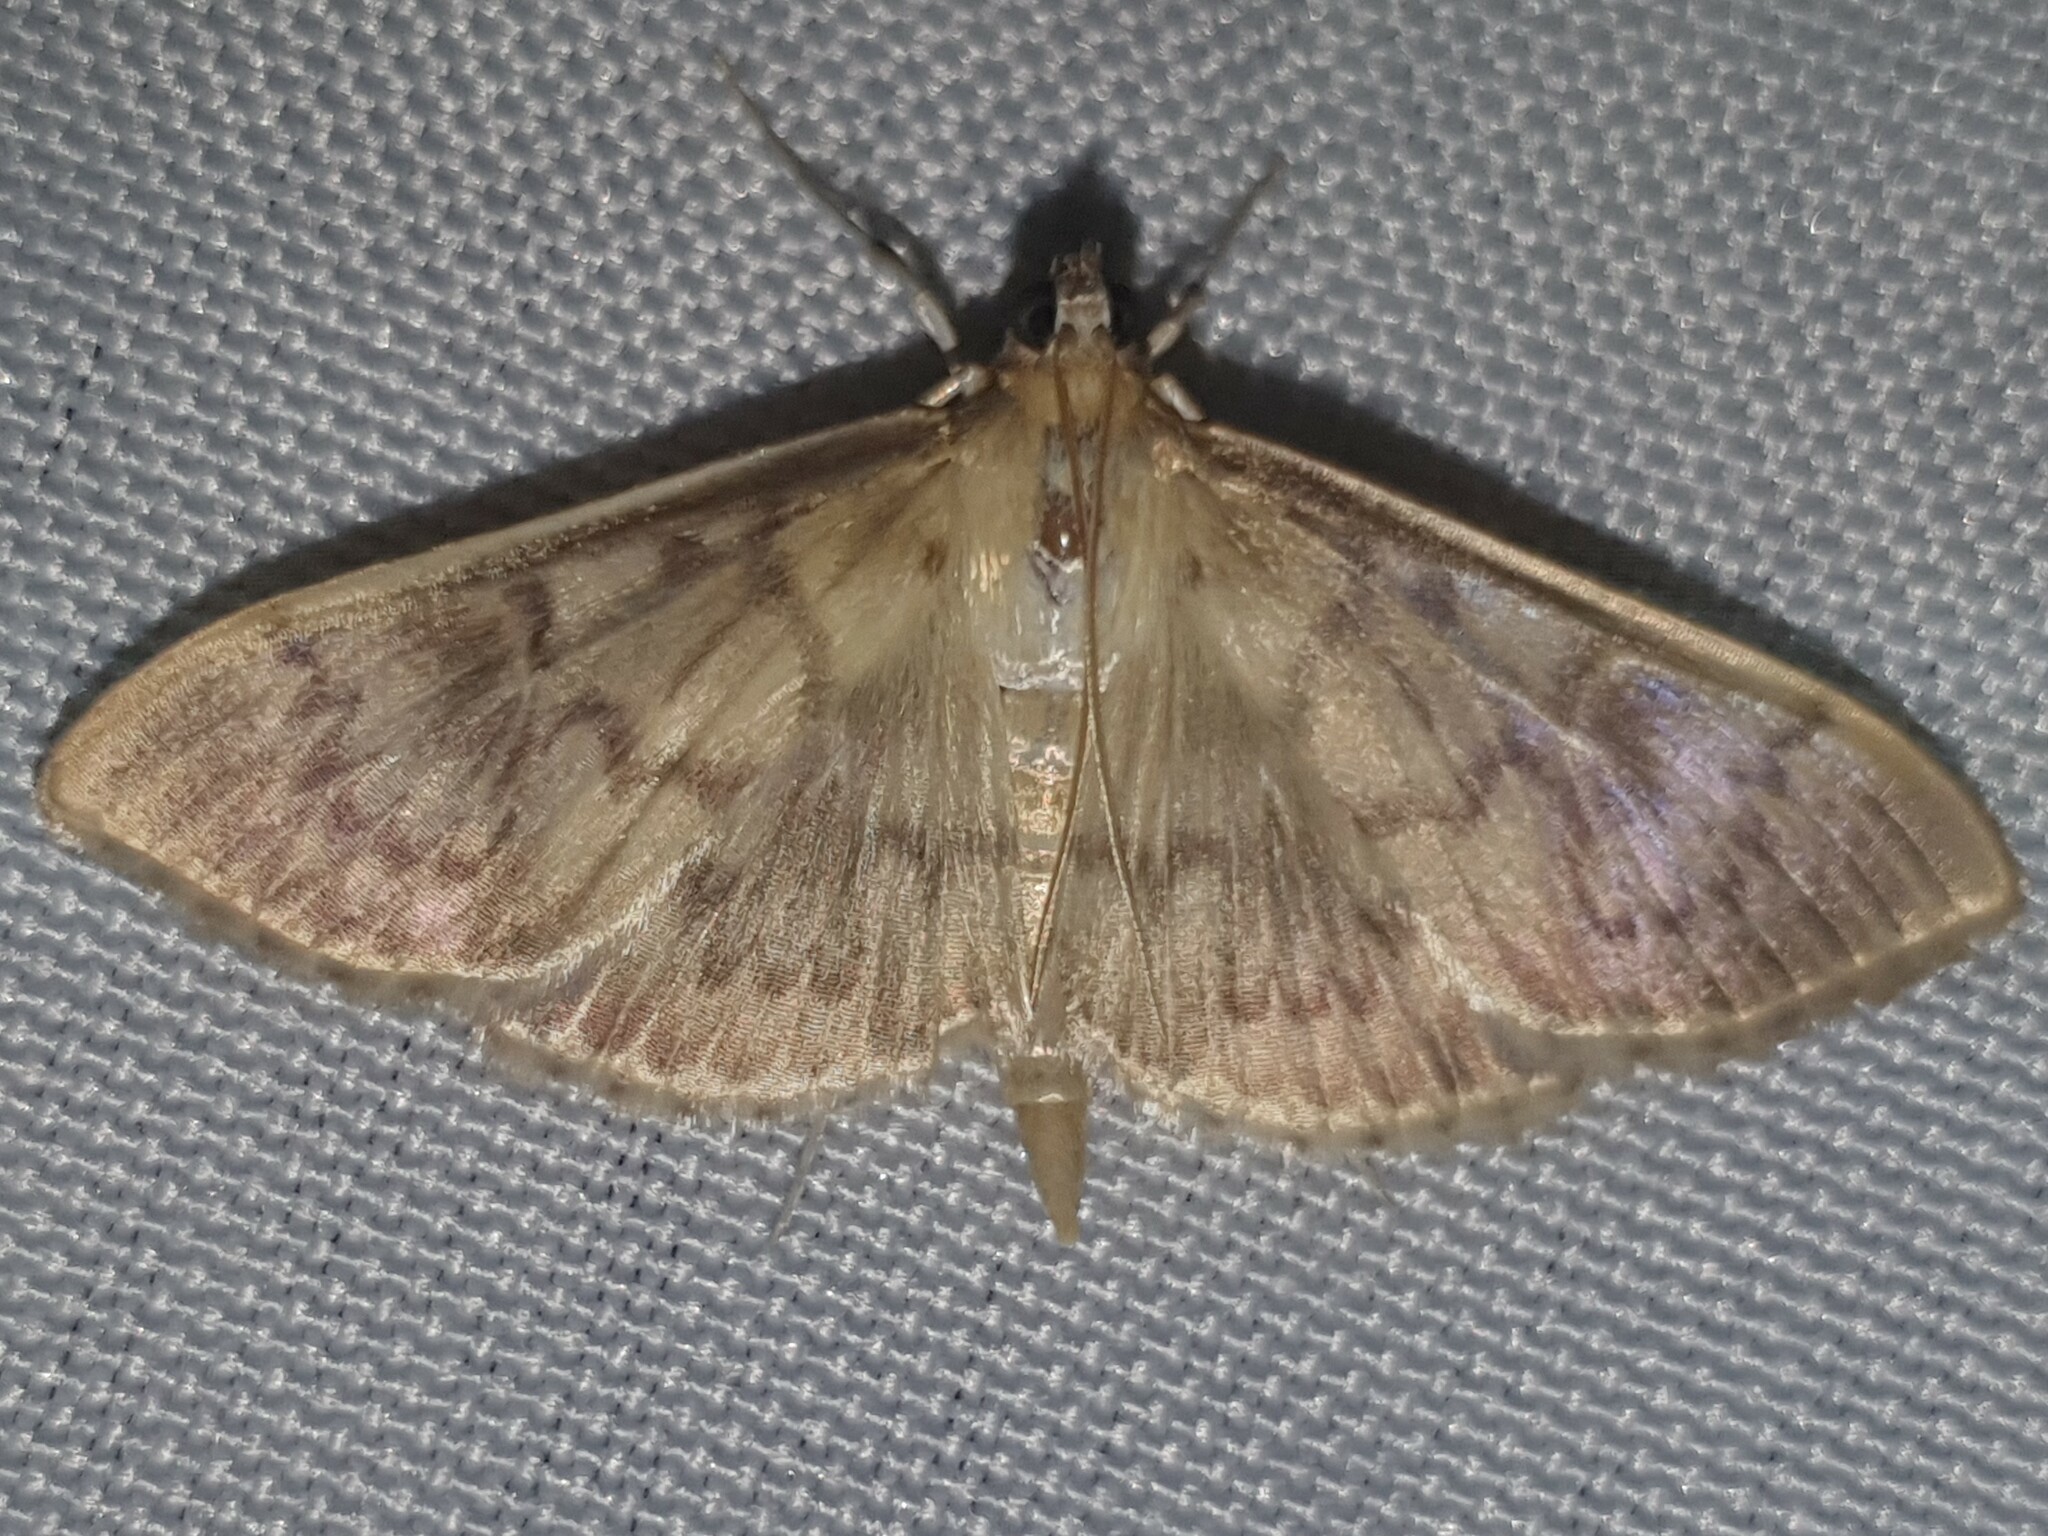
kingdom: Animalia
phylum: Arthropoda
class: Insecta
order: Lepidoptera
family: Crambidae
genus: Patania
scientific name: Patania ruralis
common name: Mother of pearl
